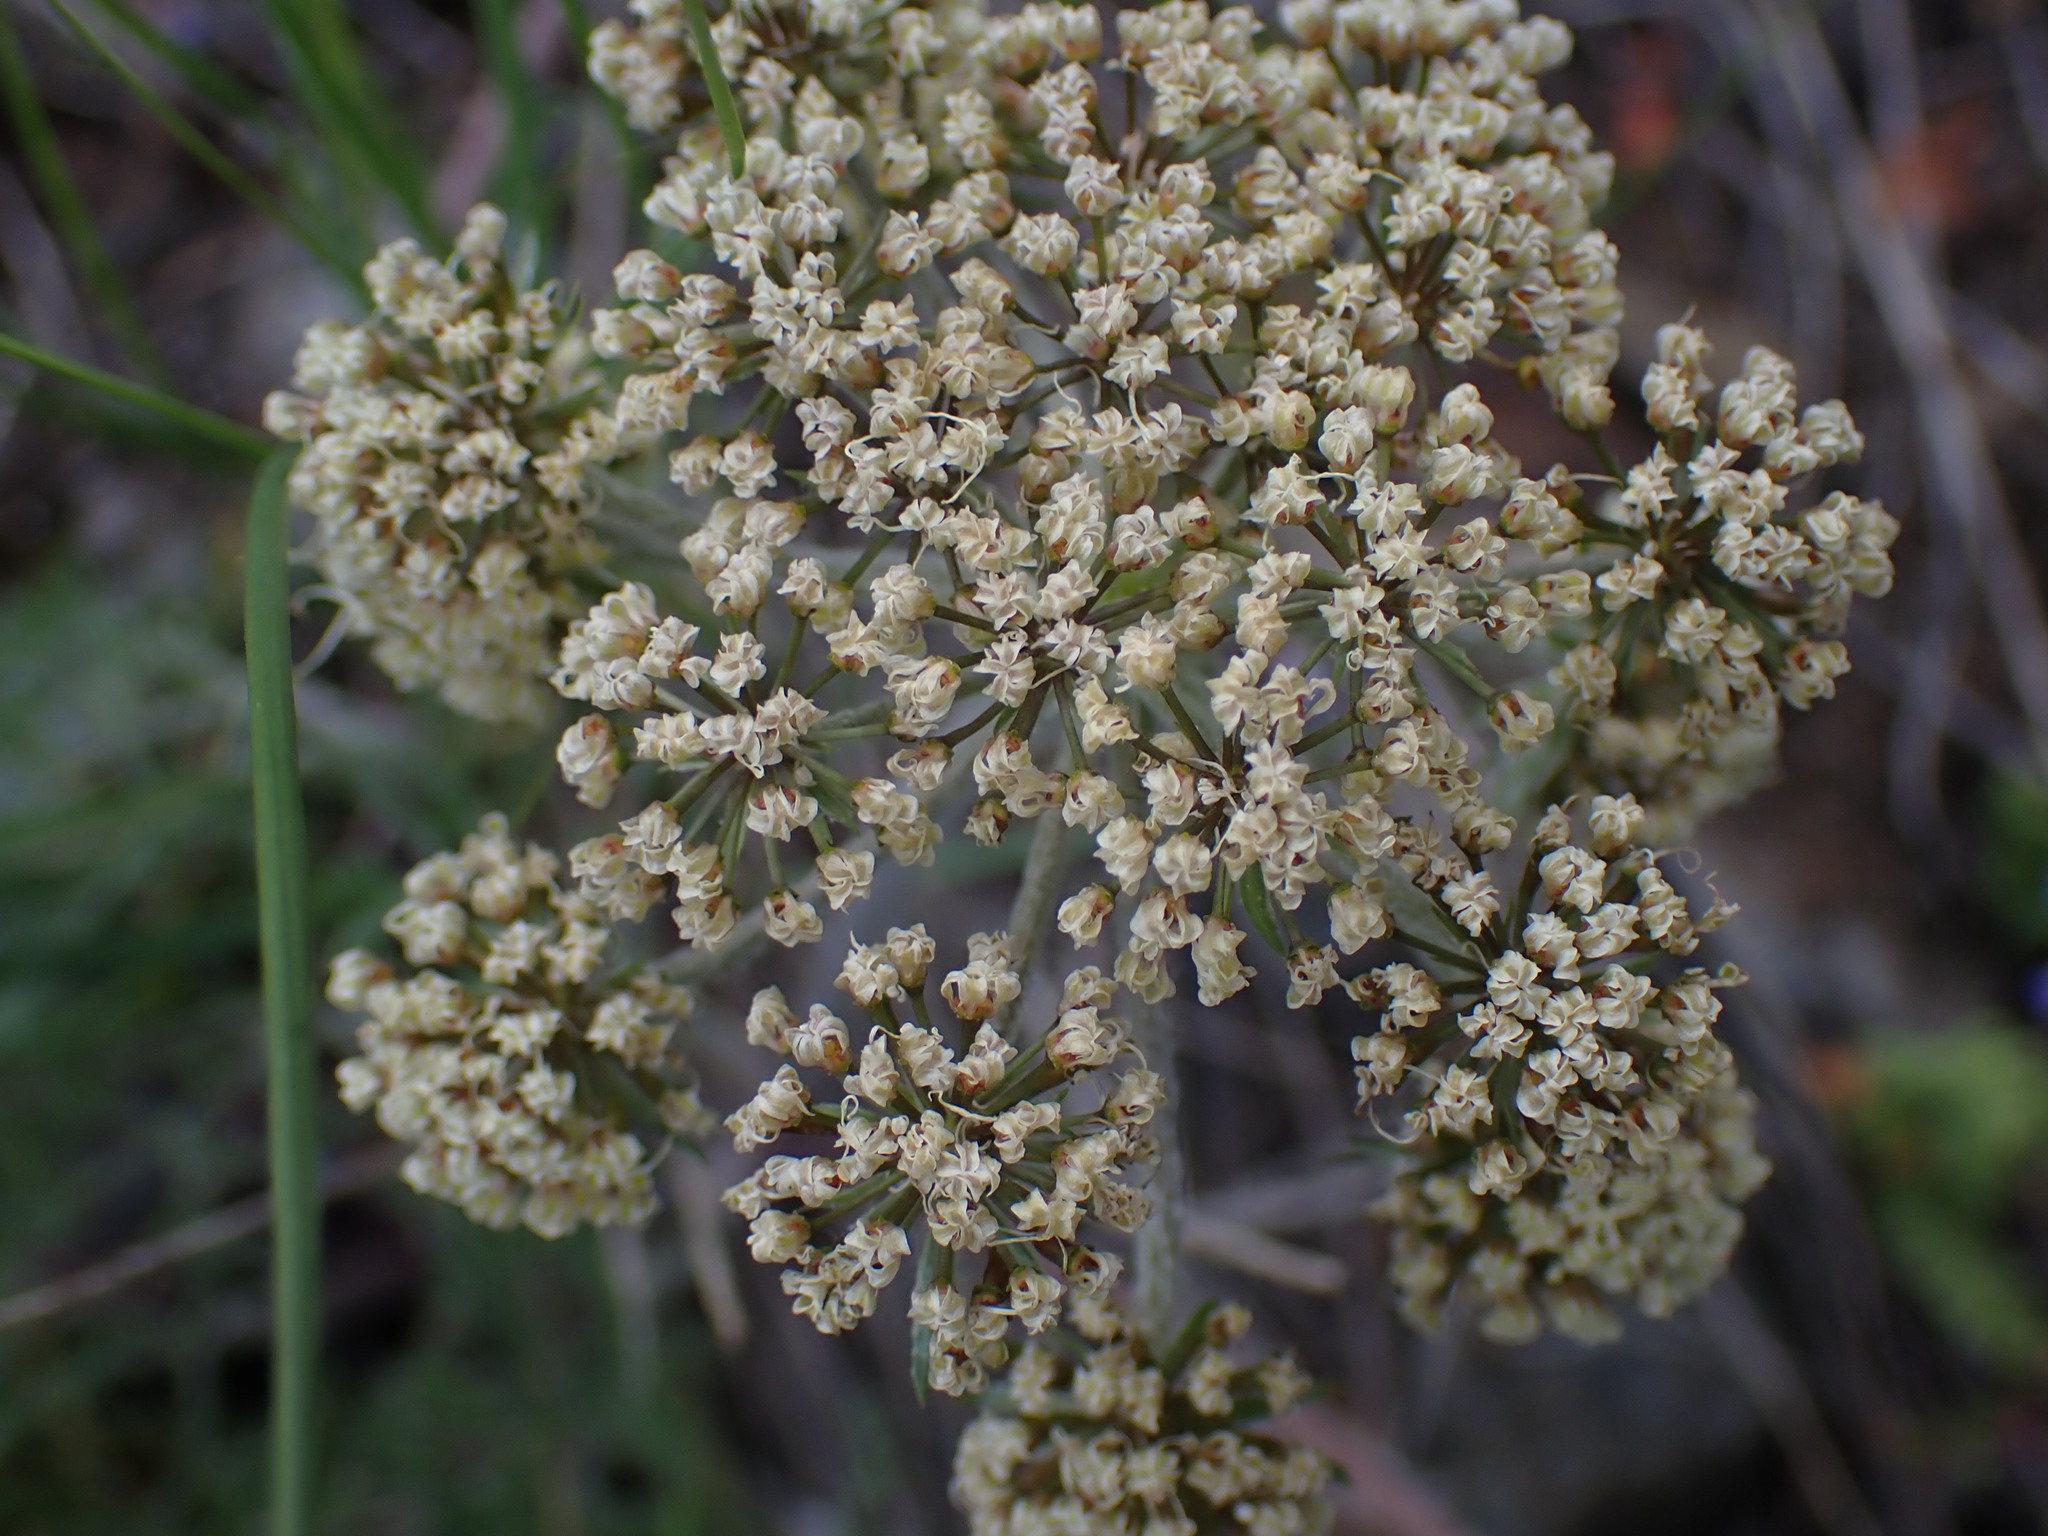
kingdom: Plantae
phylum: Tracheophyta
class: Magnoliopsida
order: Apiales
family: Apiaceae
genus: Lomatium
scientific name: Lomatium macrocarpum
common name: Big-seed biscuitroot
